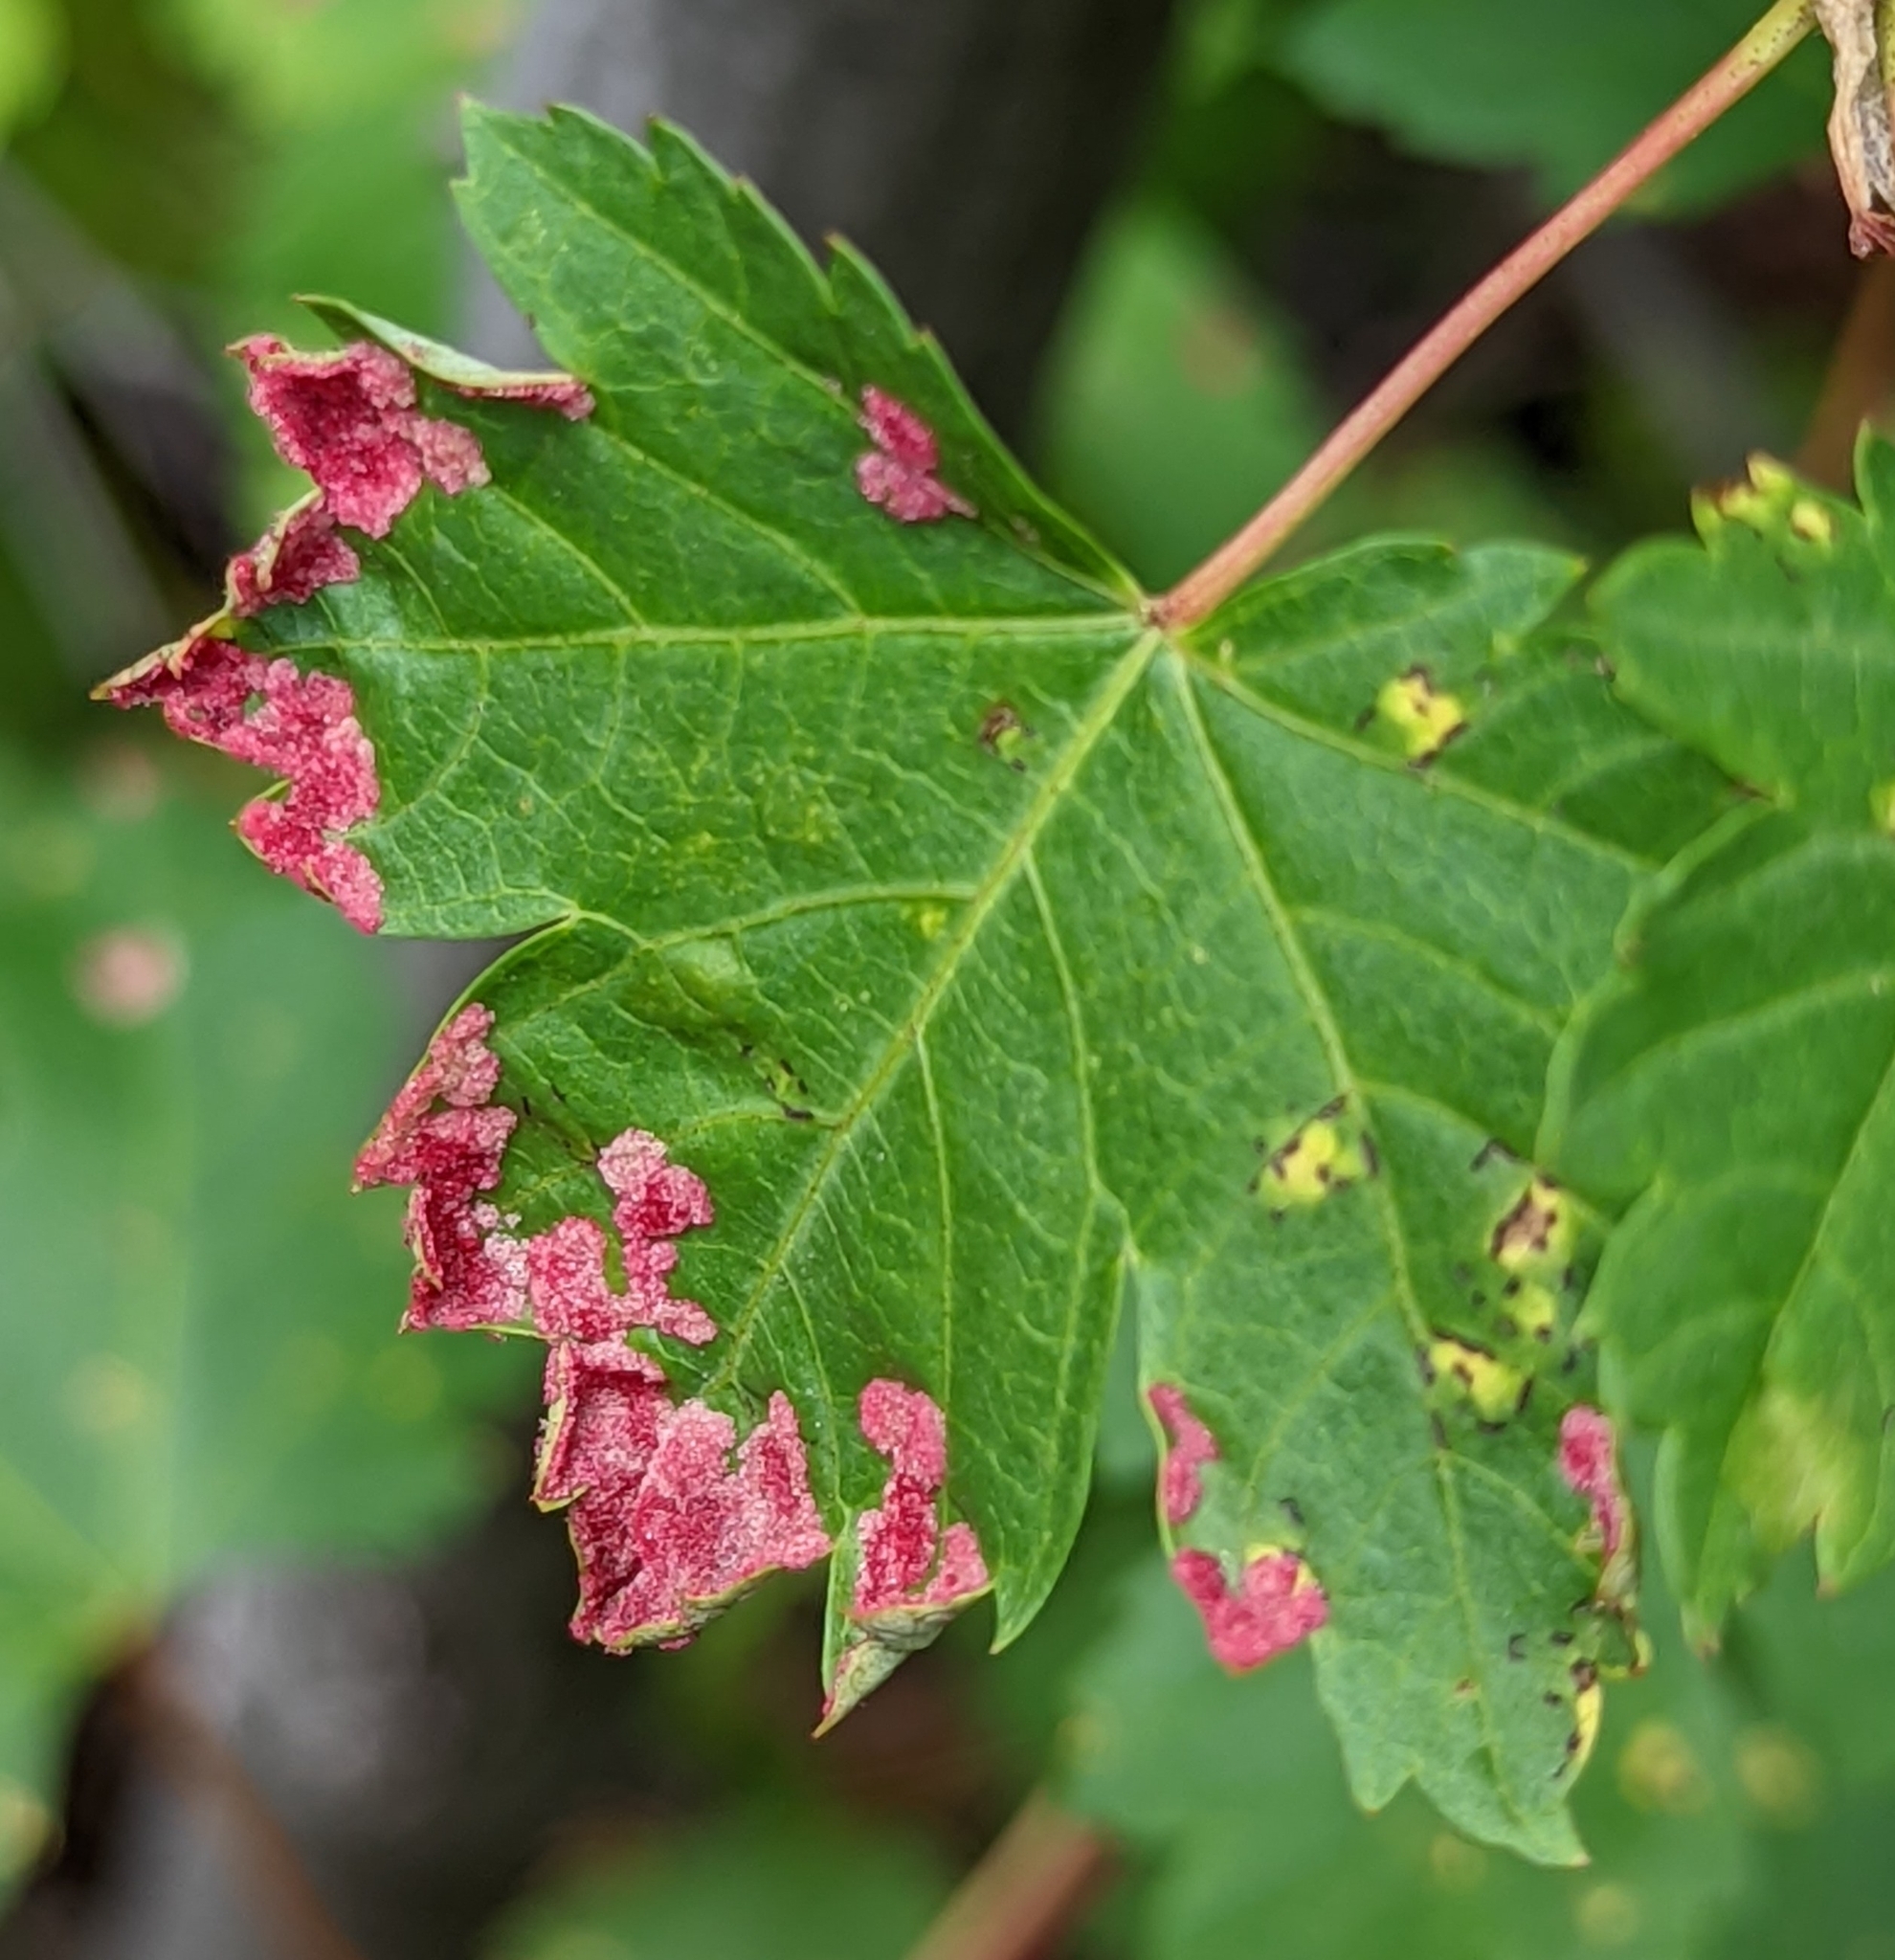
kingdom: Animalia
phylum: Arthropoda
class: Arachnida
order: Trombidiformes
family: Eriophyidae
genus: Aceria
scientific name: Aceria
